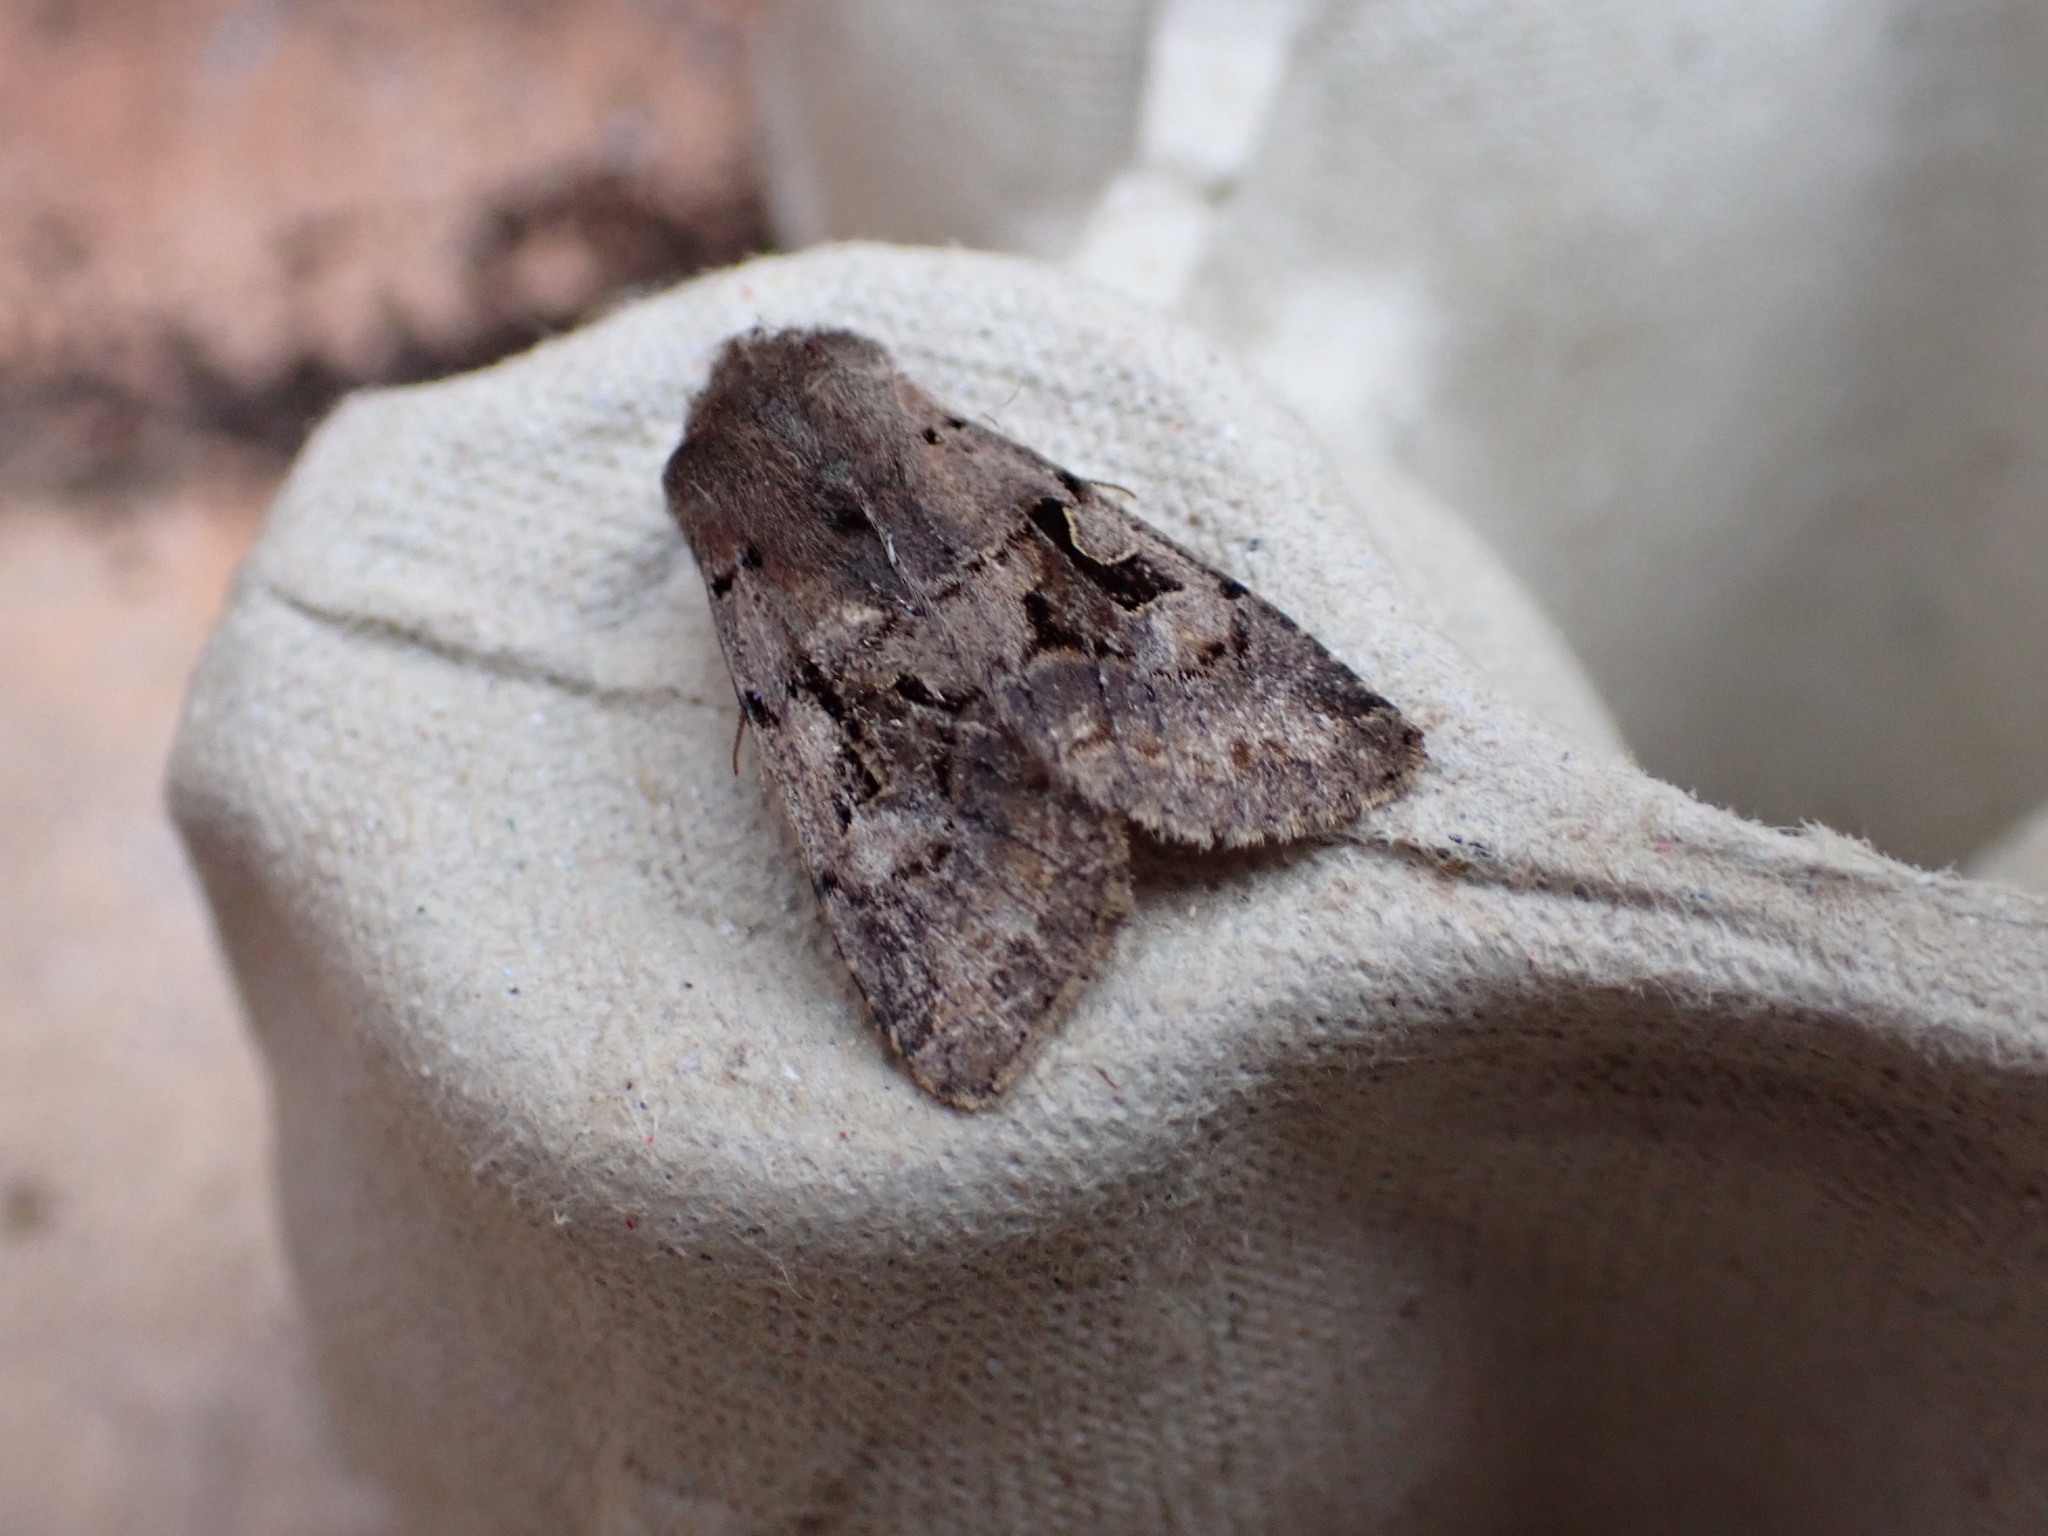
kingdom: Animalia
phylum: Arthropoda
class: Insecta
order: Lepidoptera
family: Noctuidae
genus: Orthosia
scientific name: Orthosia gothica
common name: Hebrew character
